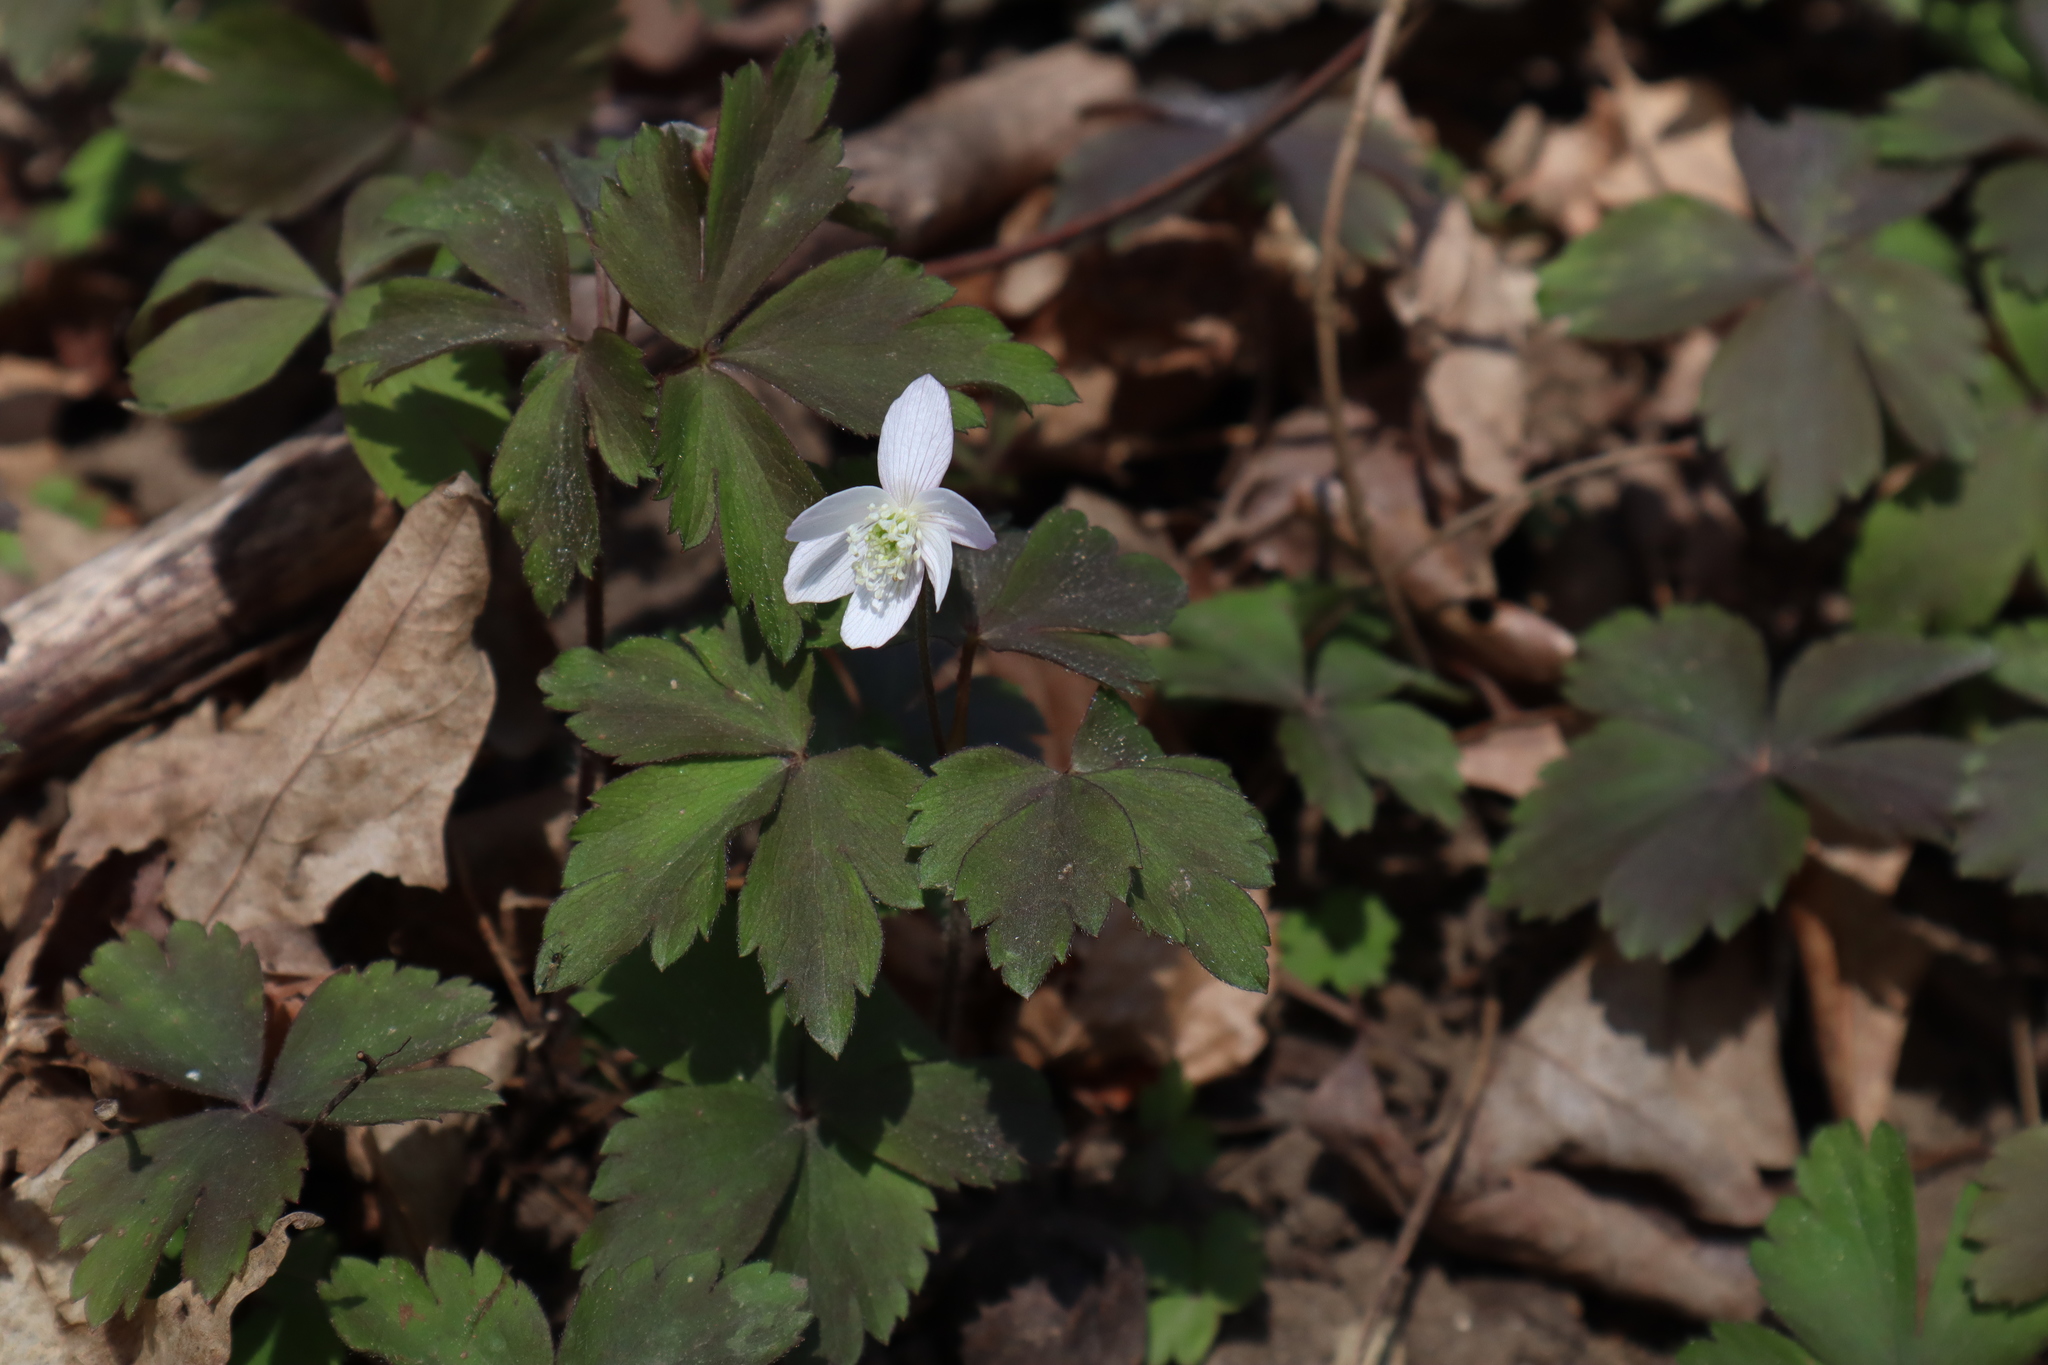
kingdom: Plantae
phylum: Tracheophyta
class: Magnoliopsida
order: Ranunculales
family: Ranunculaceae
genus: Anemone
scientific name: Anemone quinquefolia
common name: Wood anemone
